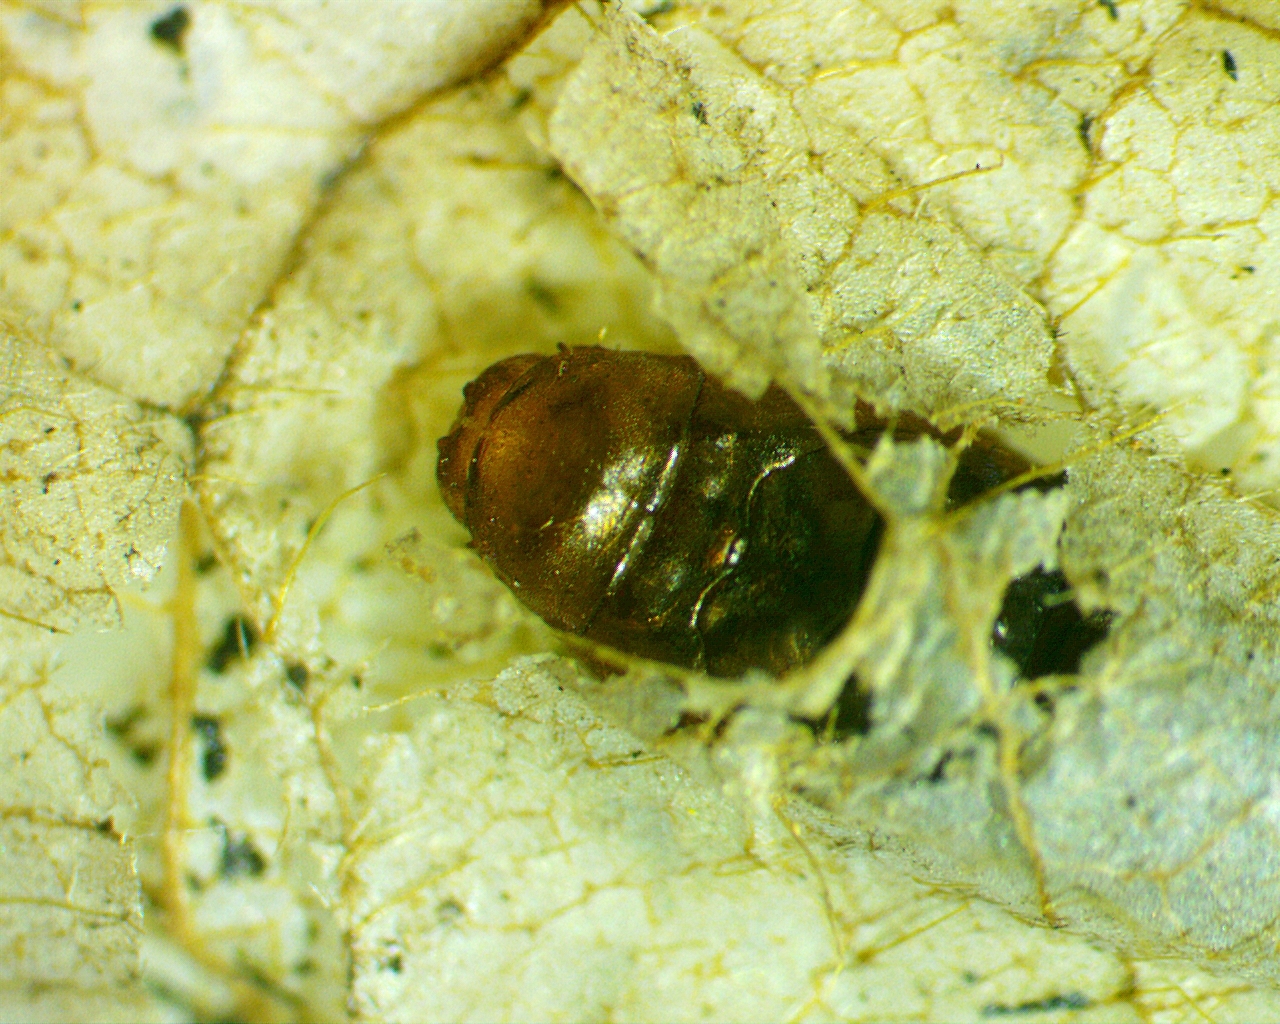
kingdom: Animalia
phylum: Arthropoda
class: Insecta
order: Coleoptera
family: Chrysomelidae
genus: Odontota
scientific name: Odontota dorsalis
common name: Locust leaf-miner beetle
